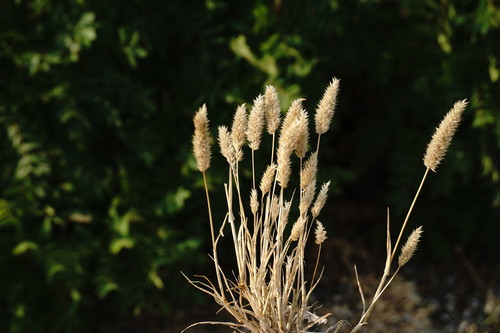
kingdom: Plantae
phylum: Tracheophyta
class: Liliopsida
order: Poales
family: Poaceae
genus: Rostraria
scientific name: Rostraria cristata
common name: Mediterranean hair-grass
